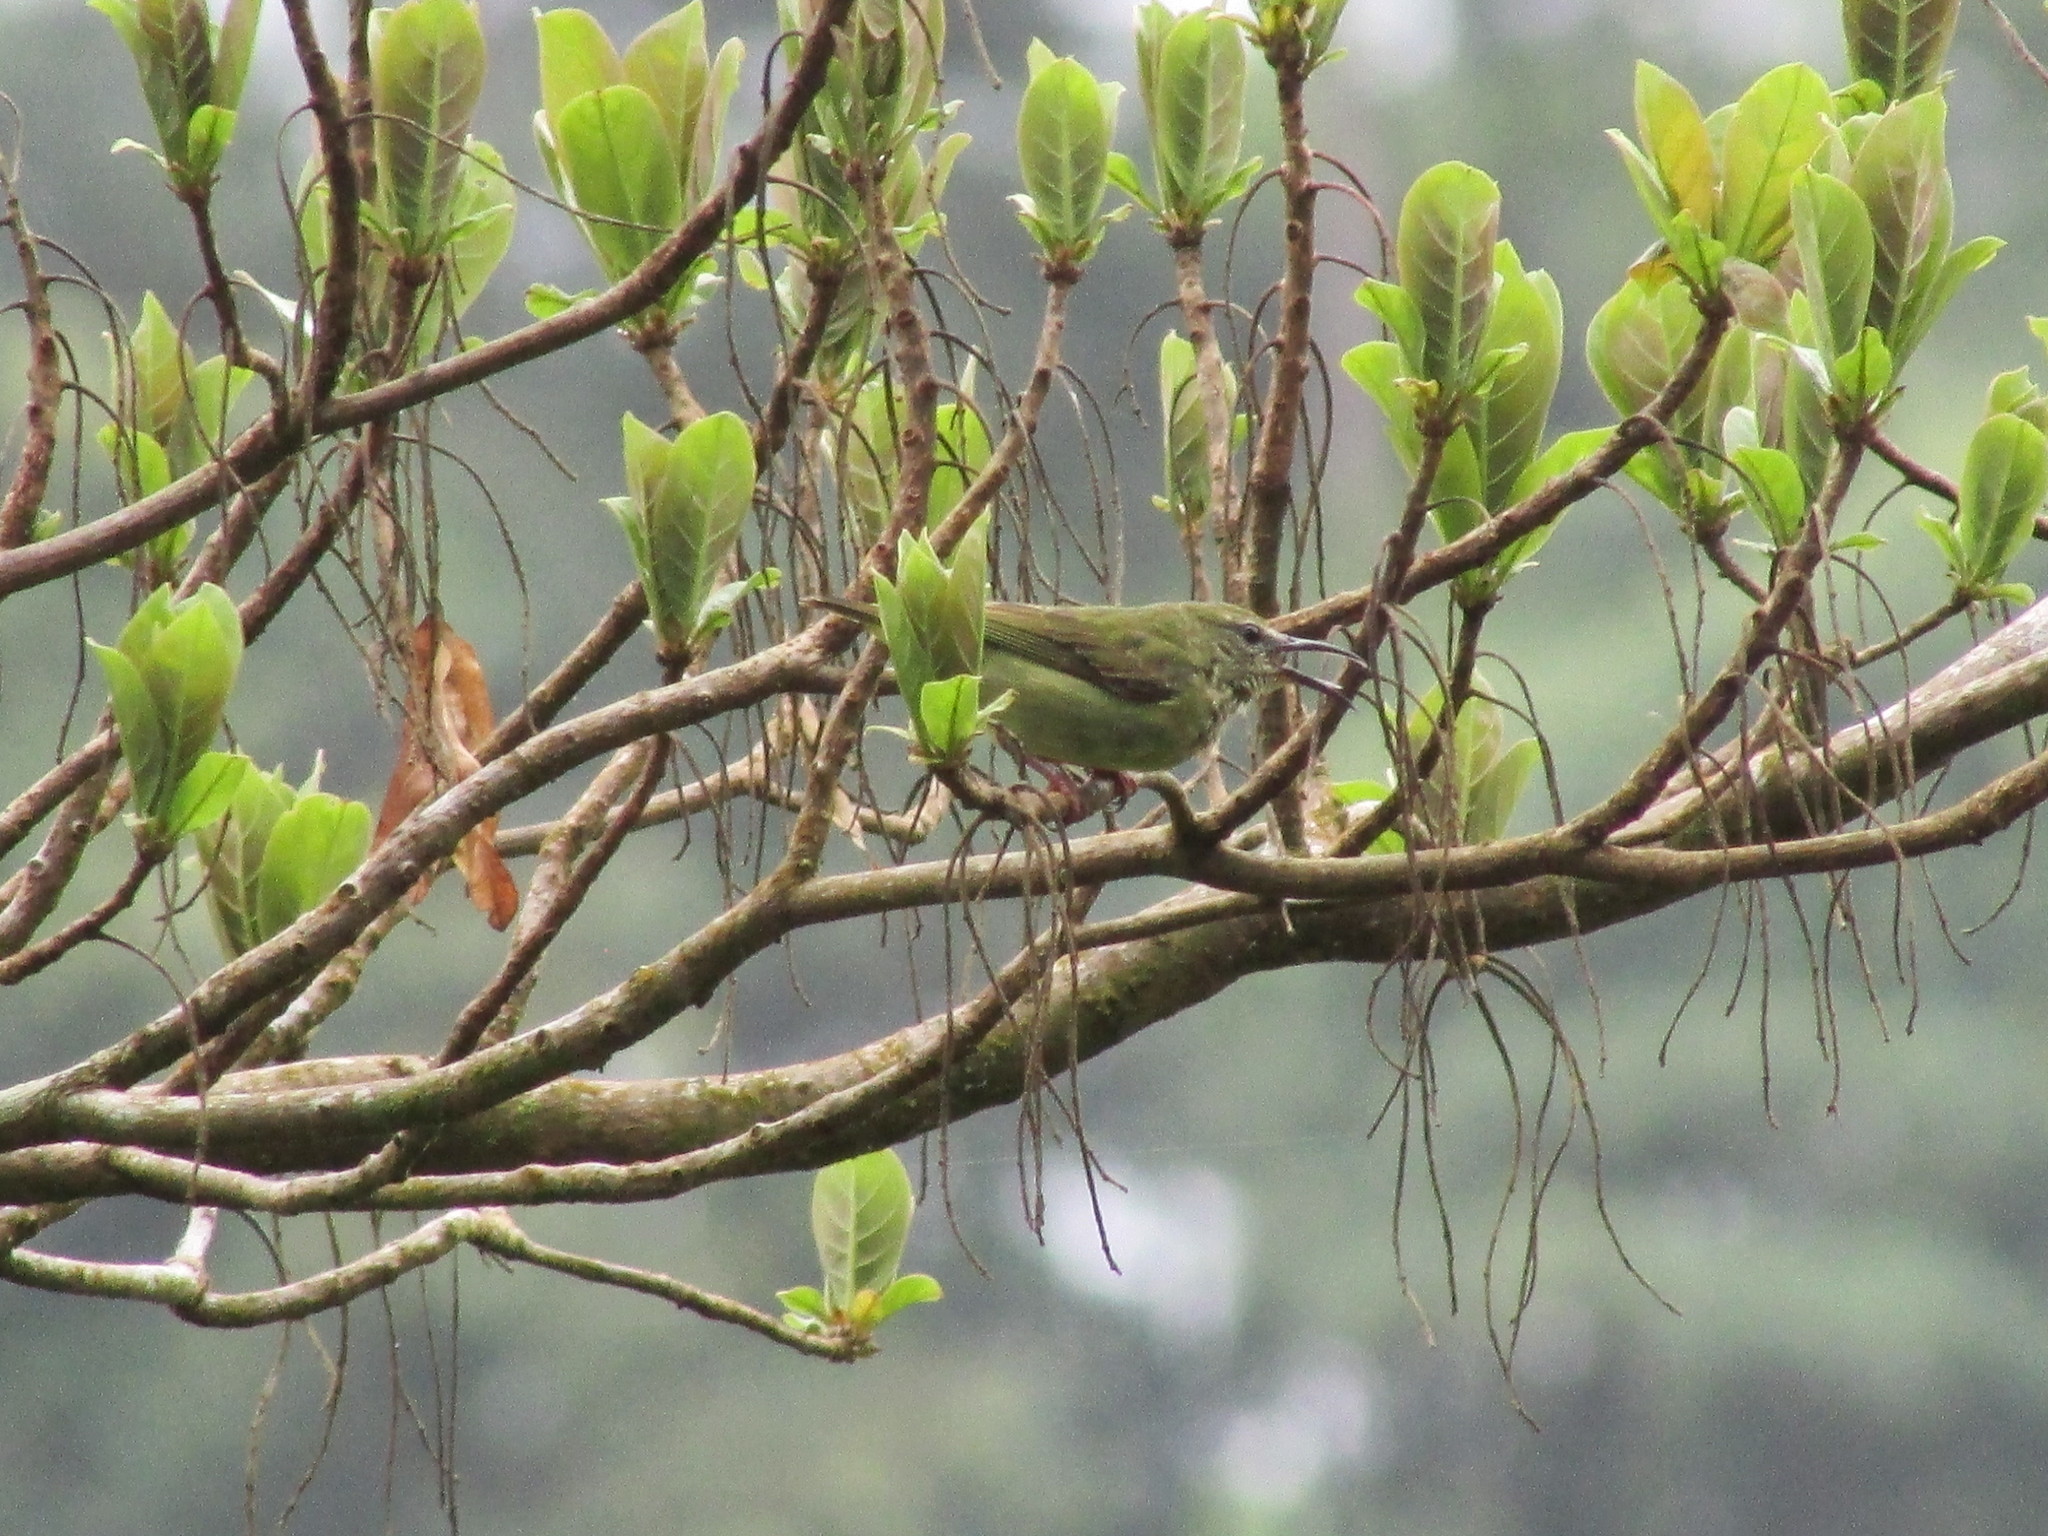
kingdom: Animalia
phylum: Chordata
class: Aves
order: Passeriformes
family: Thraupidae
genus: Cyanerpes
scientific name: Cyanerpes cyaneus
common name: Red-legged honeycreeper
